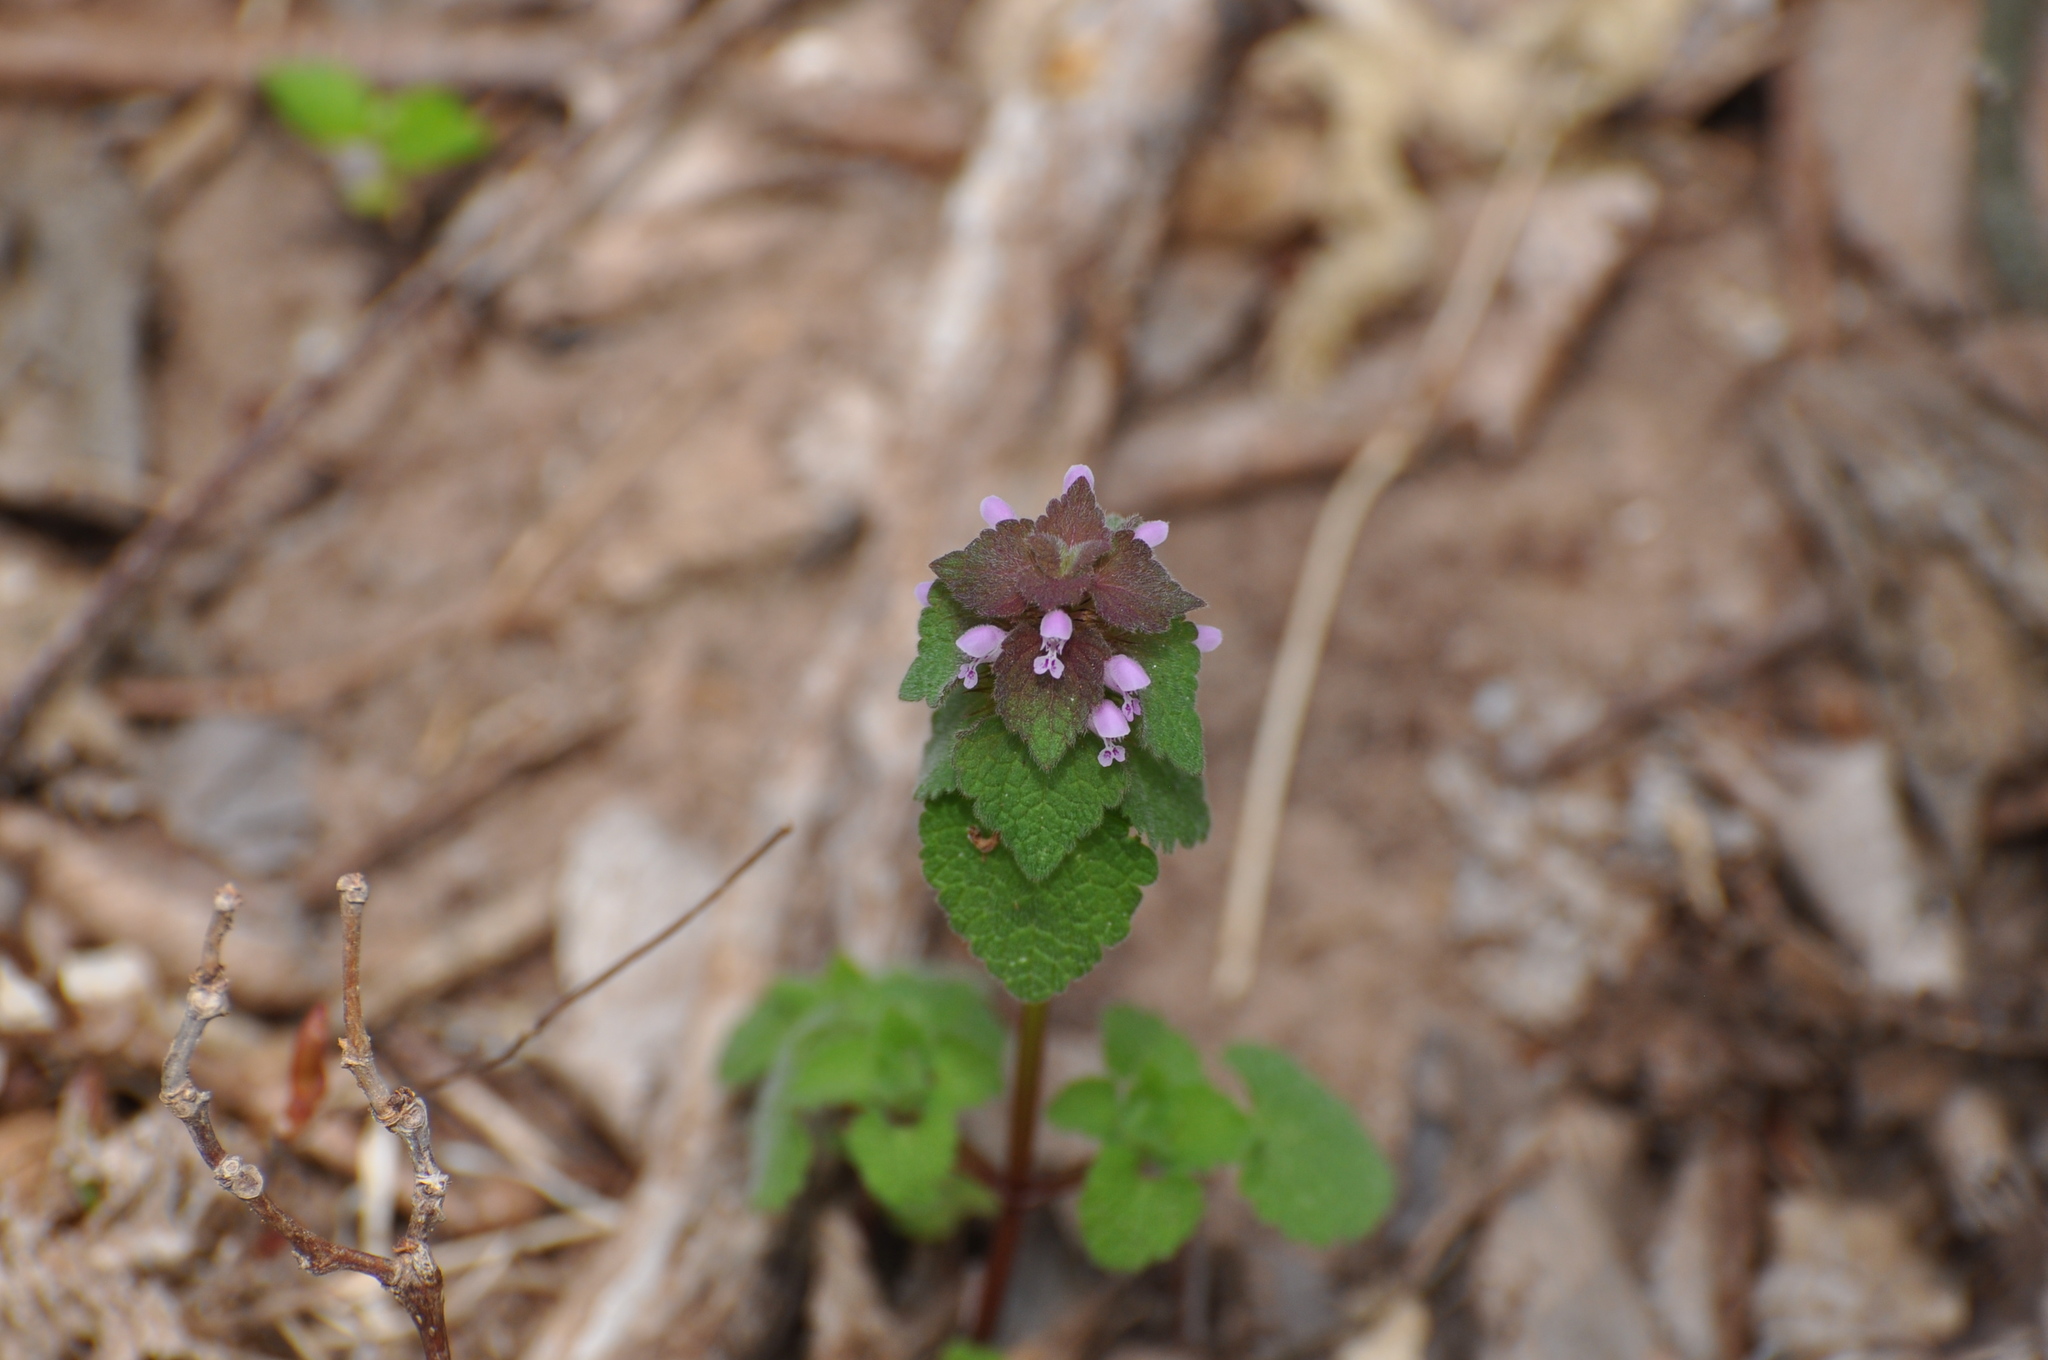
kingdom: Plantae
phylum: Tracheophyta
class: Magnoliopsida
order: Lamiales
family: Lamiaceae
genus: Lamium
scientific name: Lamium purpureum
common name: Red dead-nettle
